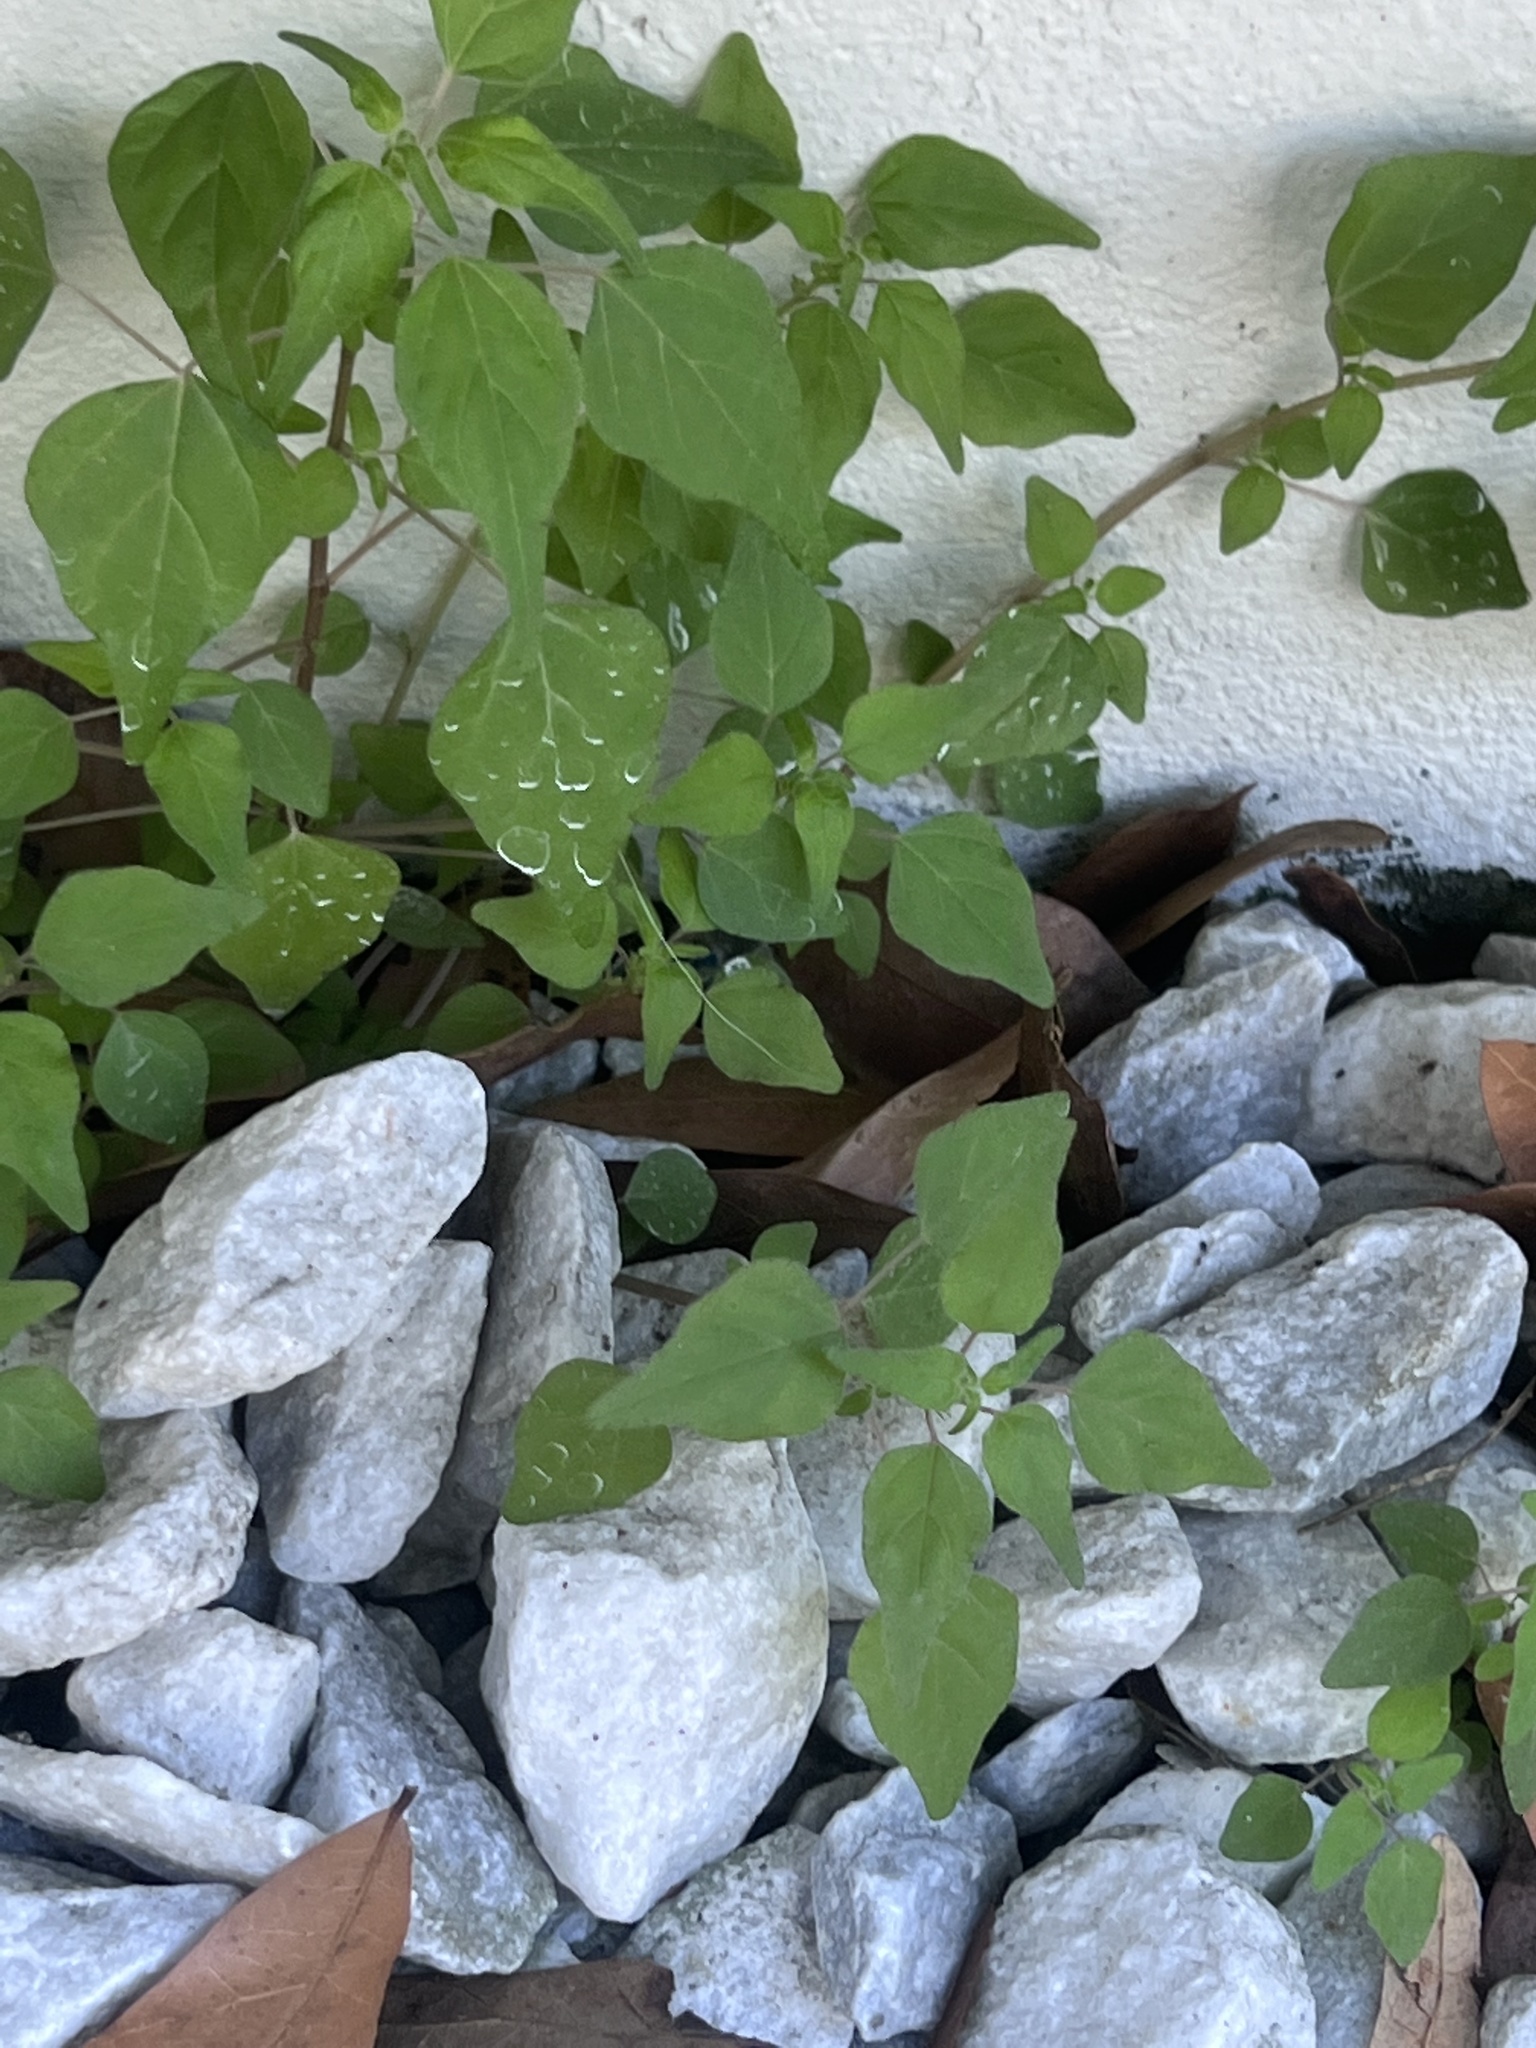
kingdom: Plantae
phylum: Tracheophyta
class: Magnoliopsida
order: Rosales
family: Urticaceae
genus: Parietaria
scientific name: Parietaria floridana
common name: Florida pellitory
